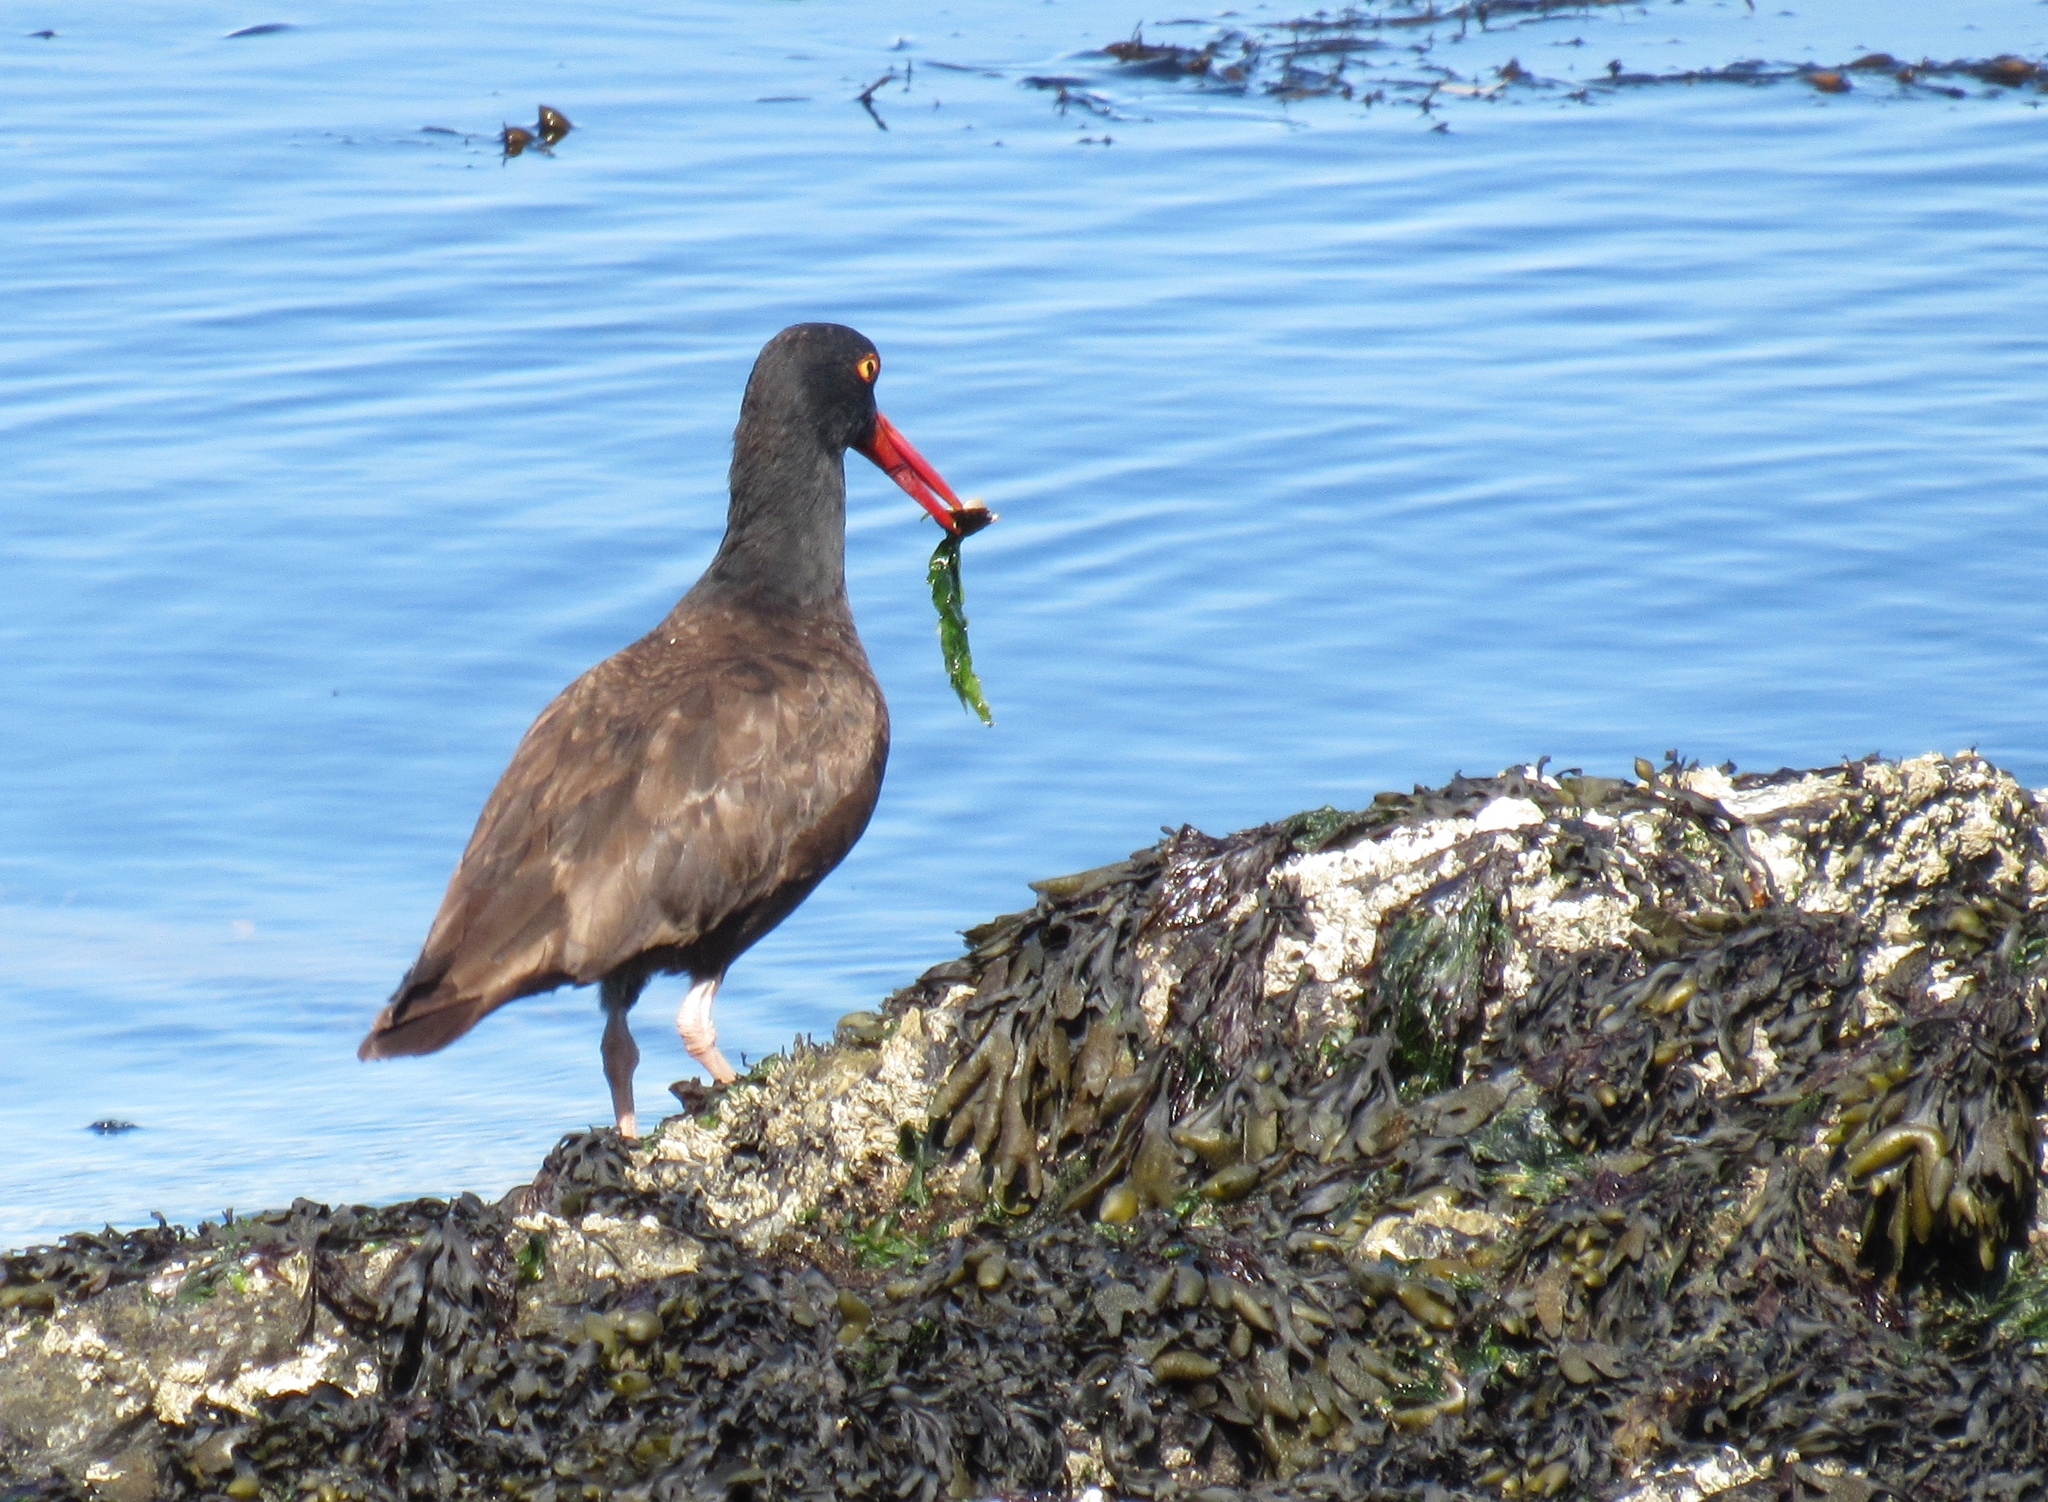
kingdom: Animalia
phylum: Chordata
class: Aves
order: Charadriiformes
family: Haematopodidae
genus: Haematopus
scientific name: Haematopus bachmani
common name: Black oystercatcher
